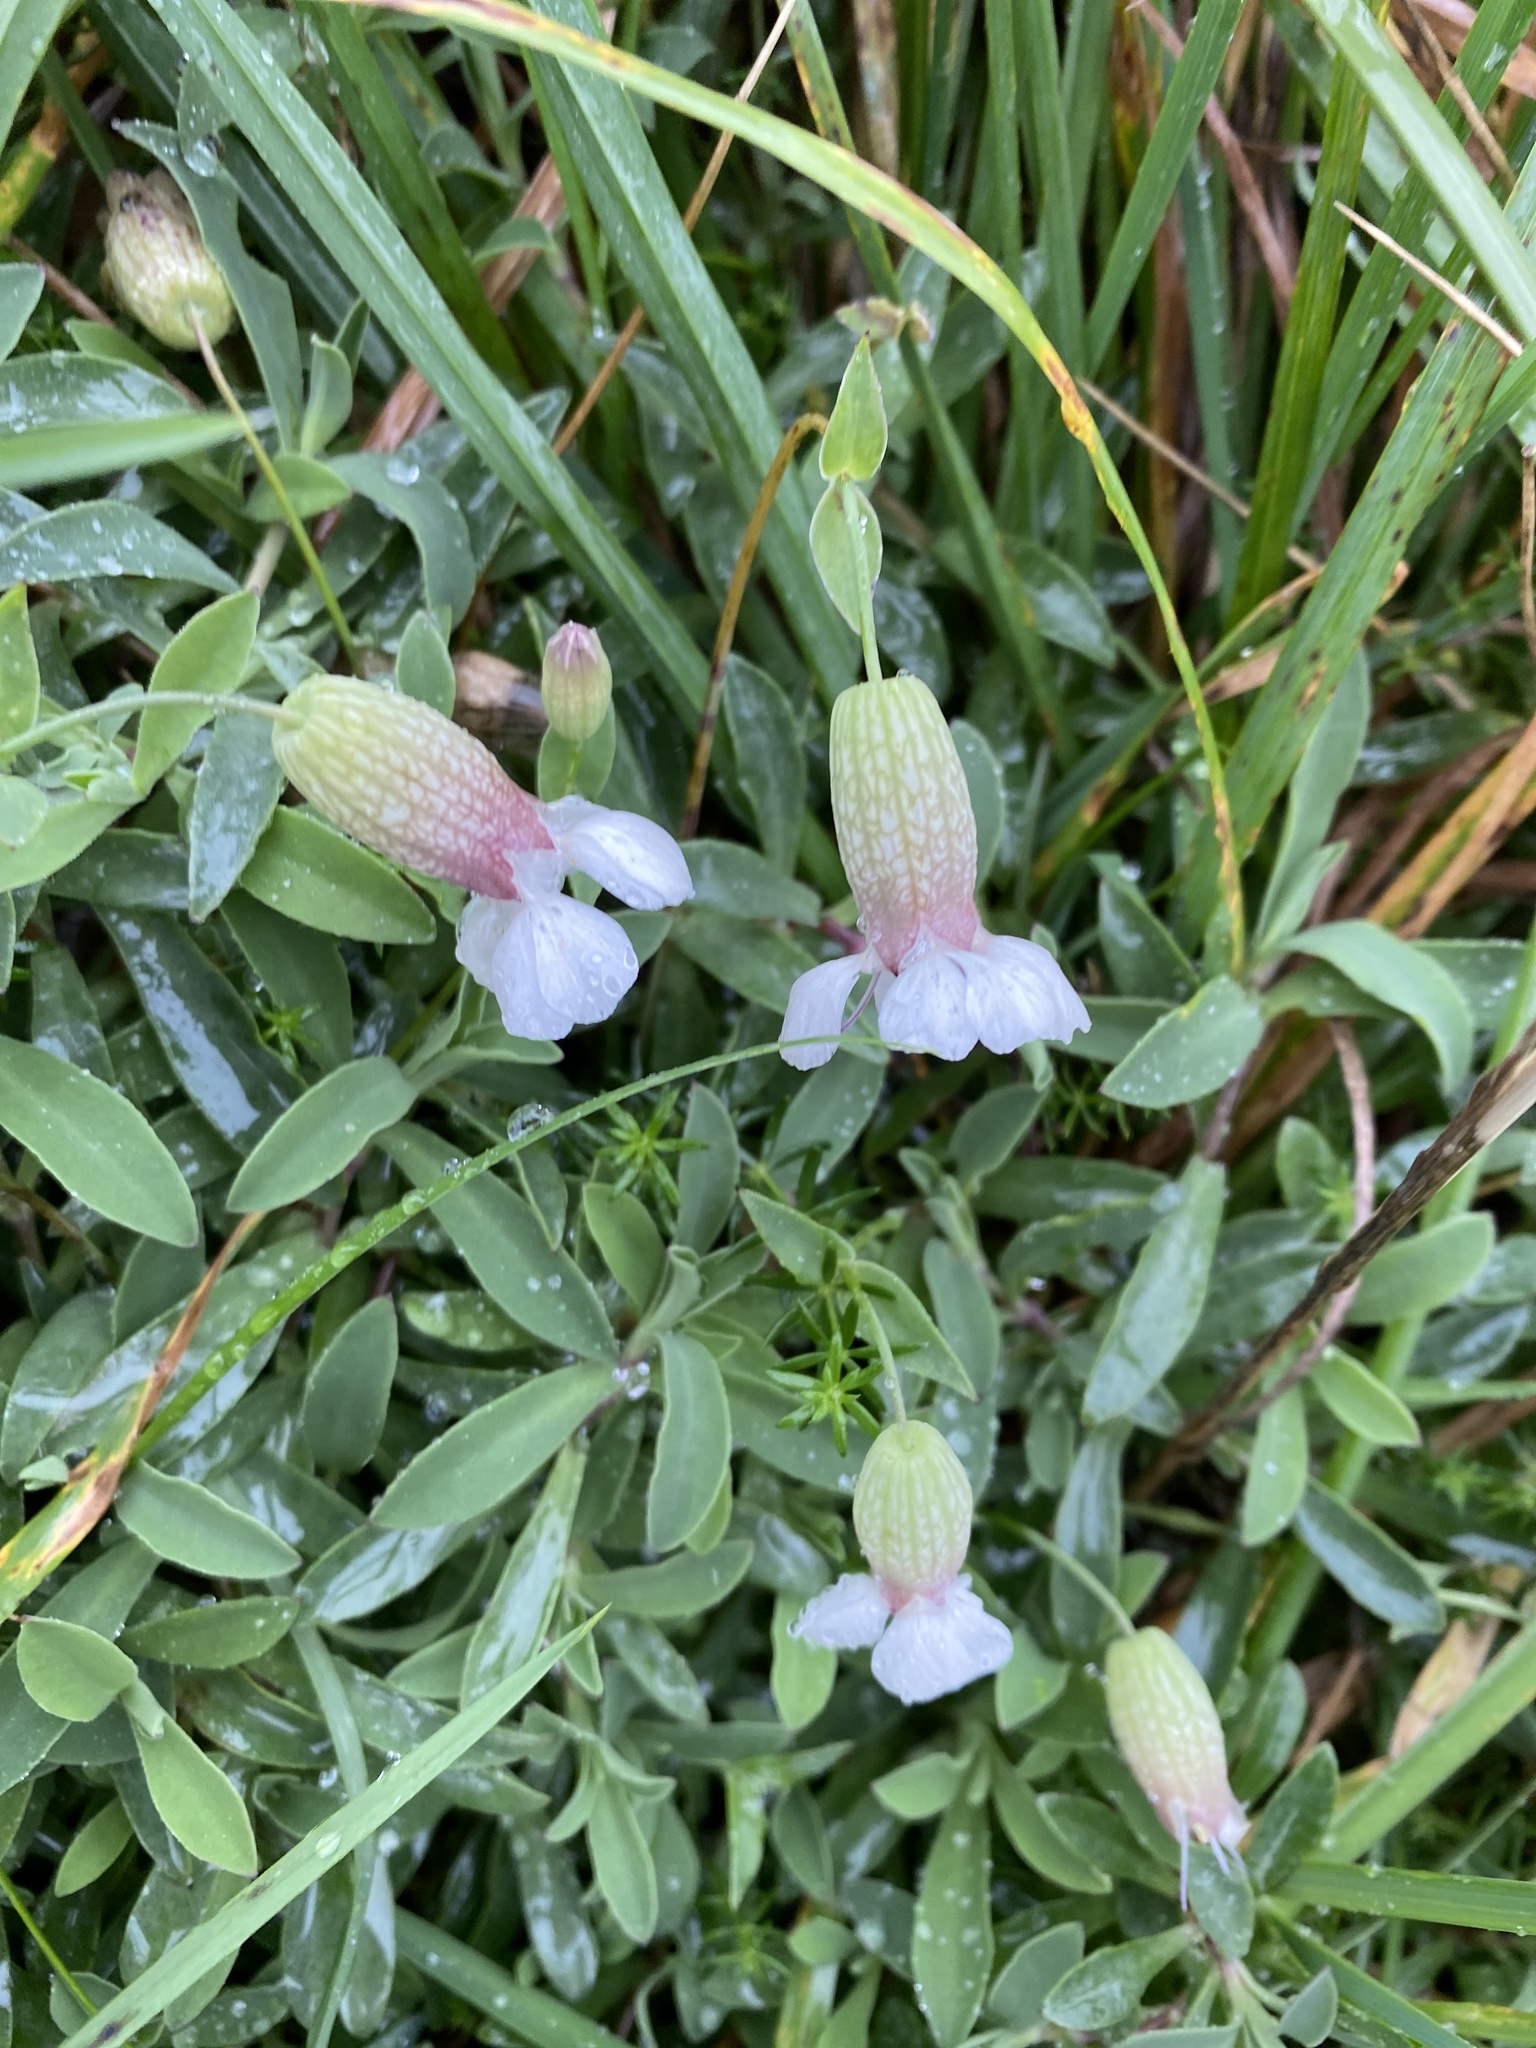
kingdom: Plantae
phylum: Tracheophyta
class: Magnoliopsida
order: Caryophyllales
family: Caryophyllaceae
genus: Silene
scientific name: Silene uniflora
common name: Sea campion
